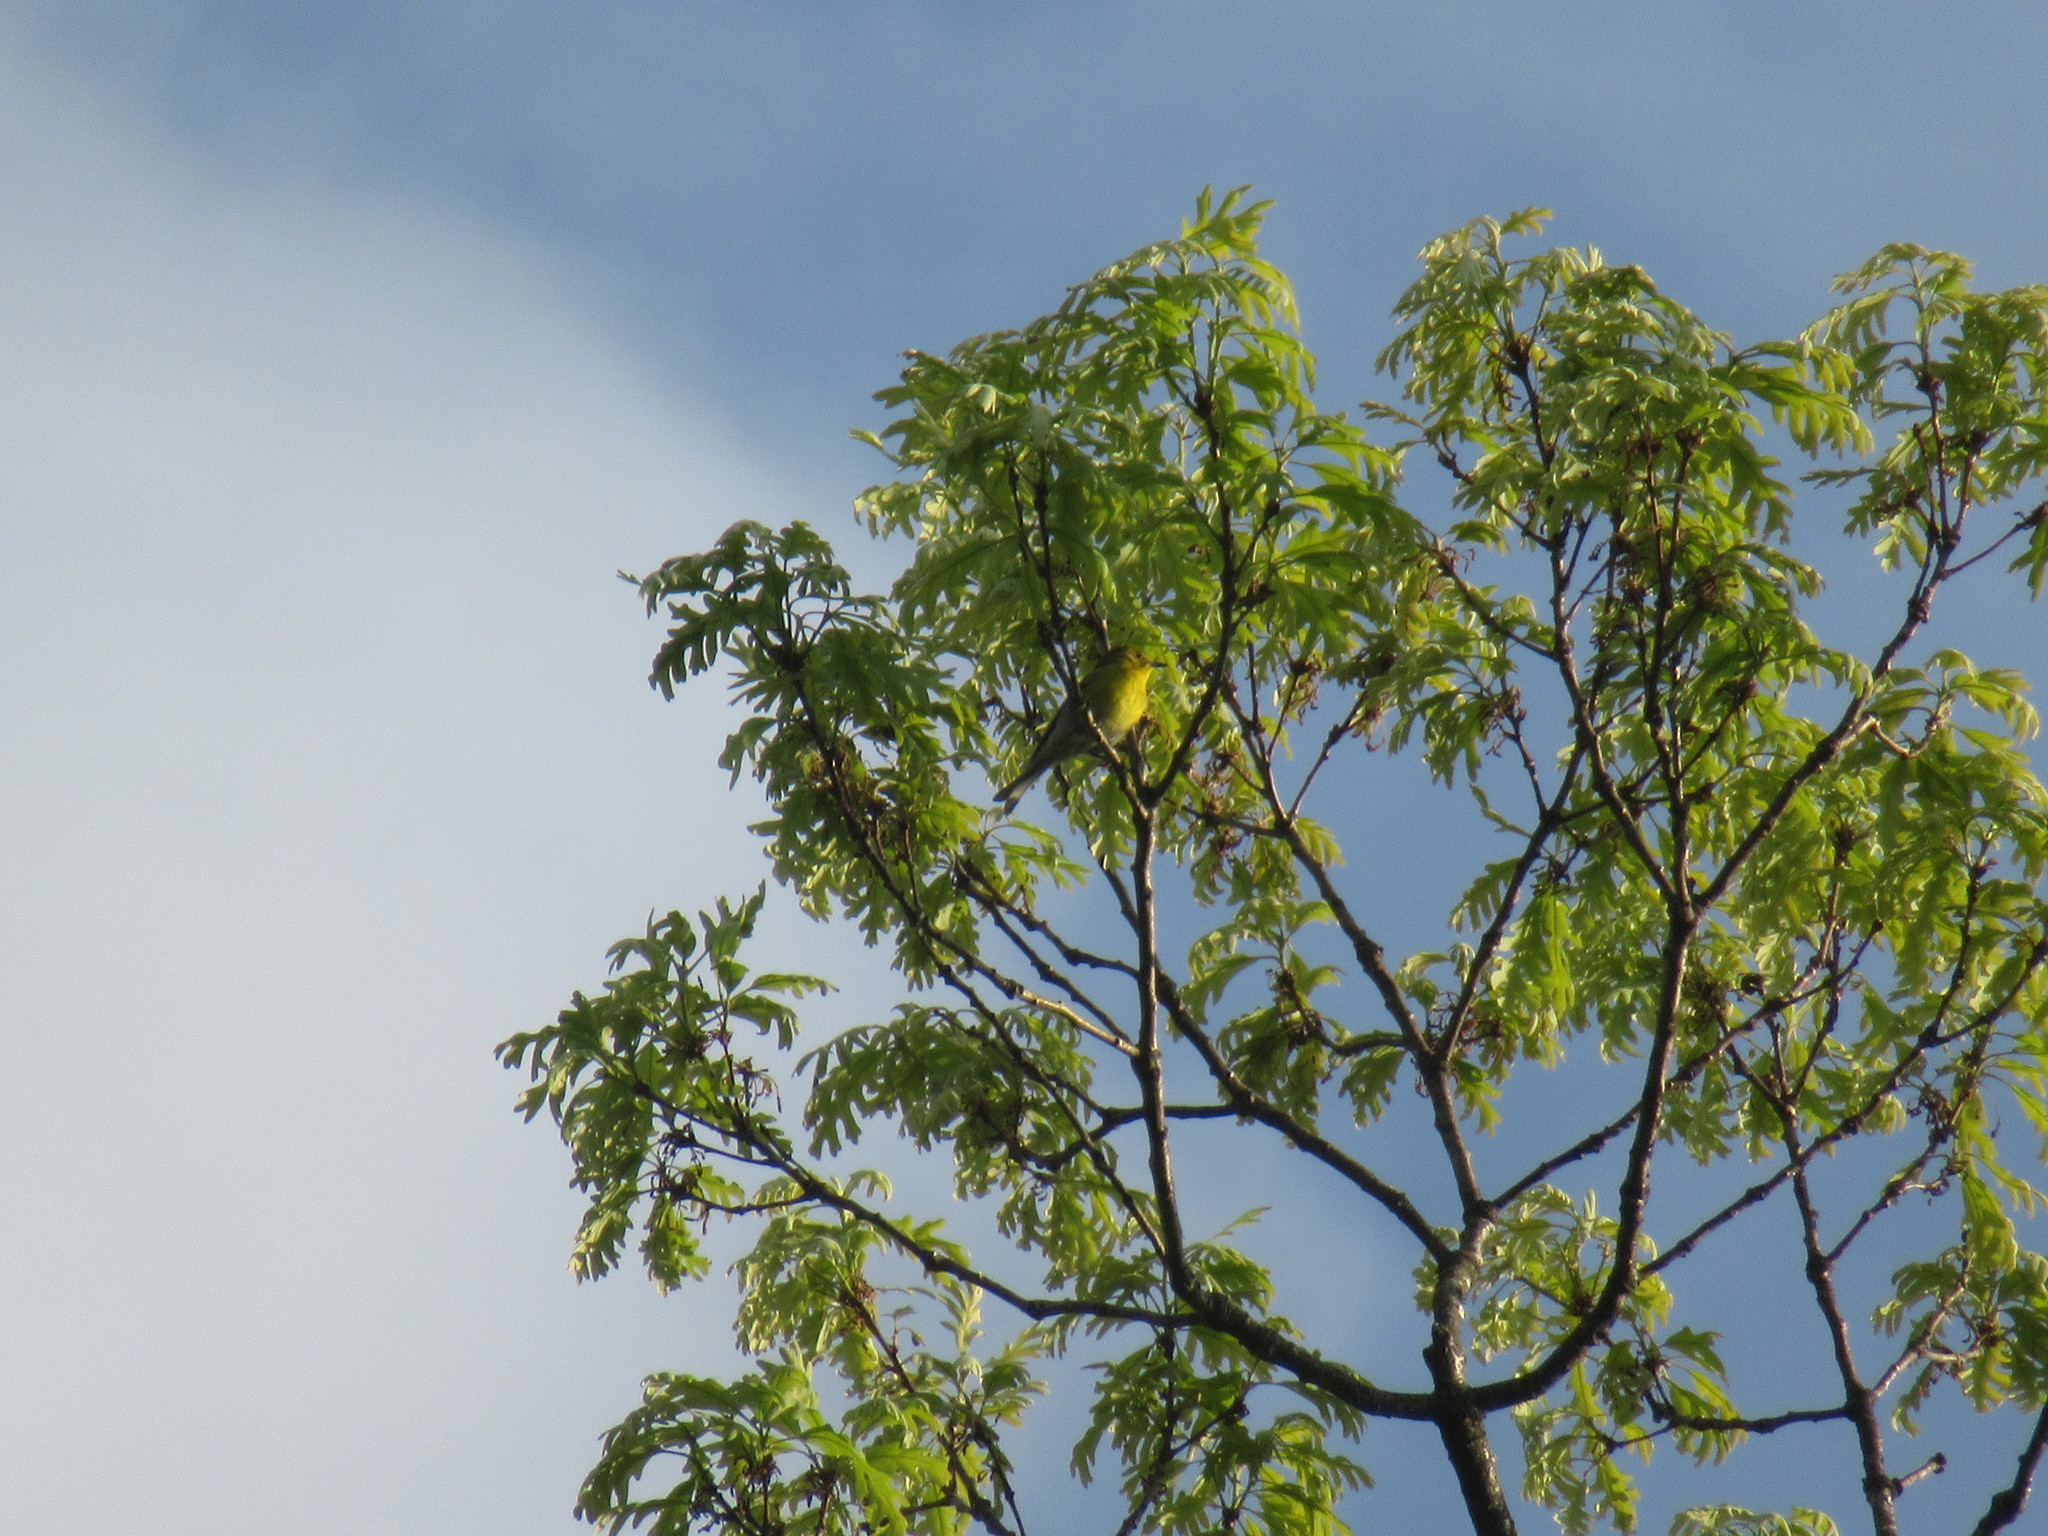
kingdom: Animalia
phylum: Chordata
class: Aves
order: Passeriformes
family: Parulidae
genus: Setophaga
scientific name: Setophaga pinus
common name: Pine warbler
